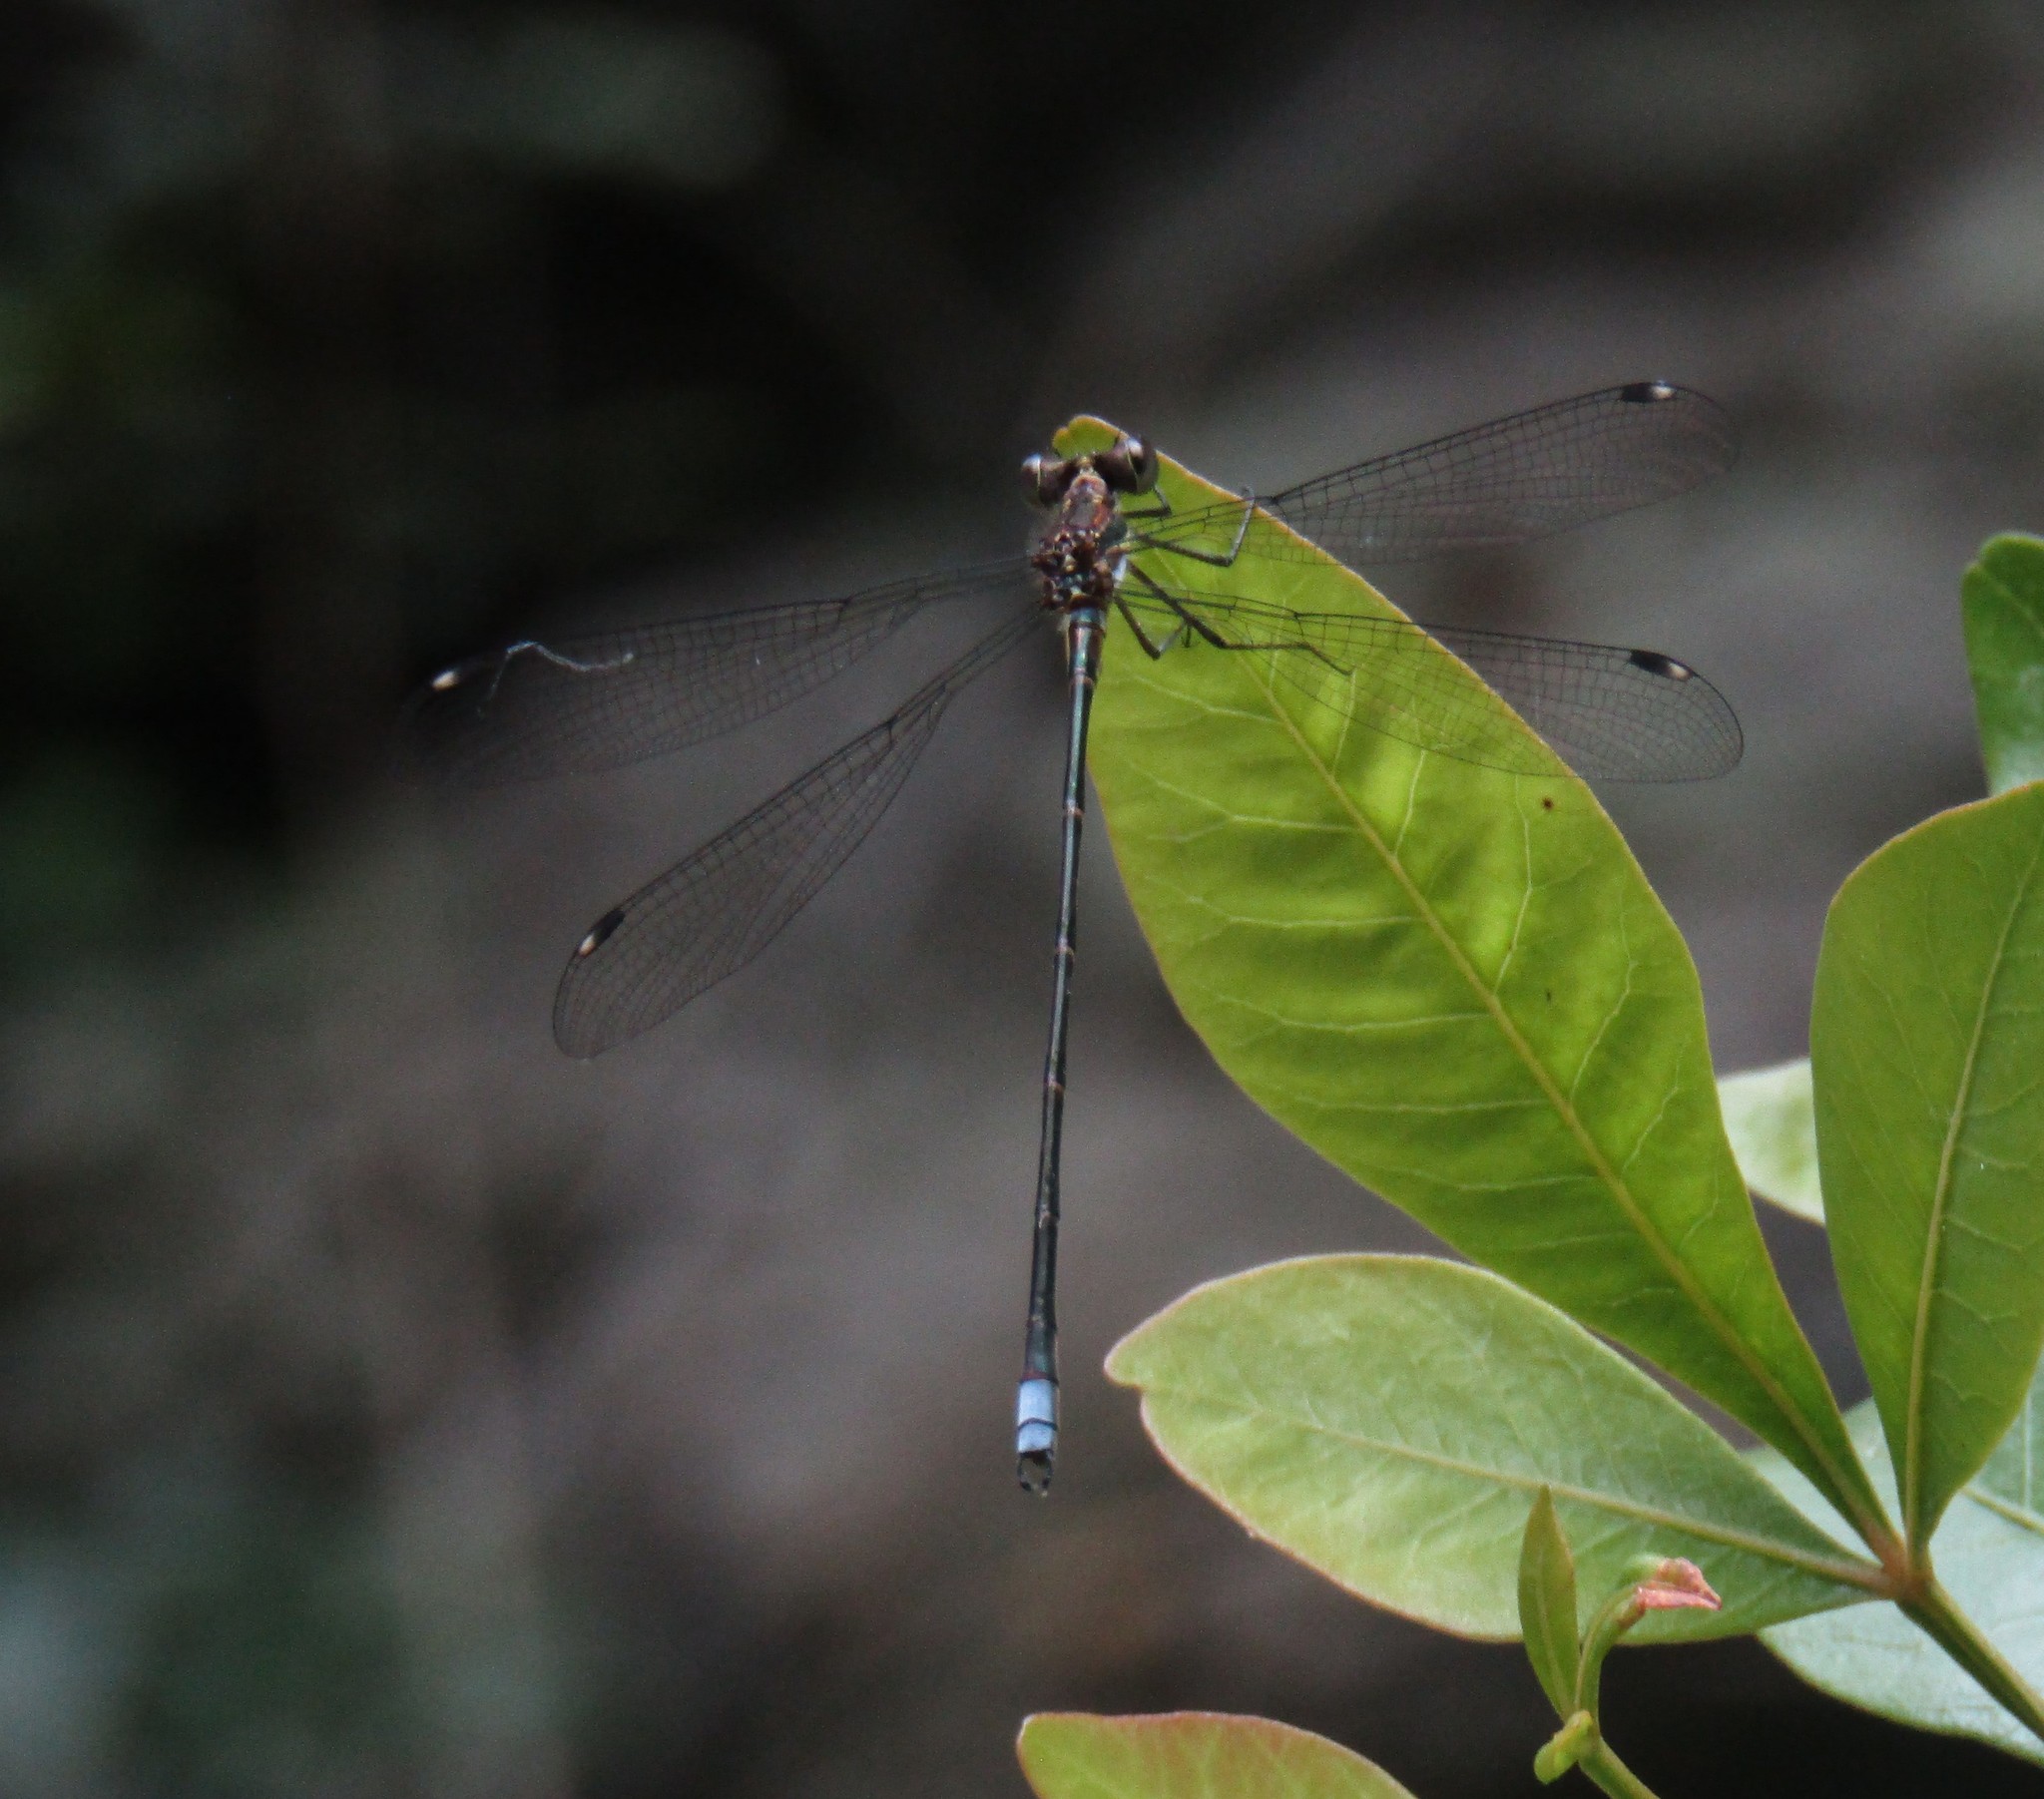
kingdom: Animalia
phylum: Arthropoda
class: Insecta
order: Odonata
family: Synlestidae
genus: Chlorolestes
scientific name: Chlorolestes tessellatus
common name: Forest malachite
